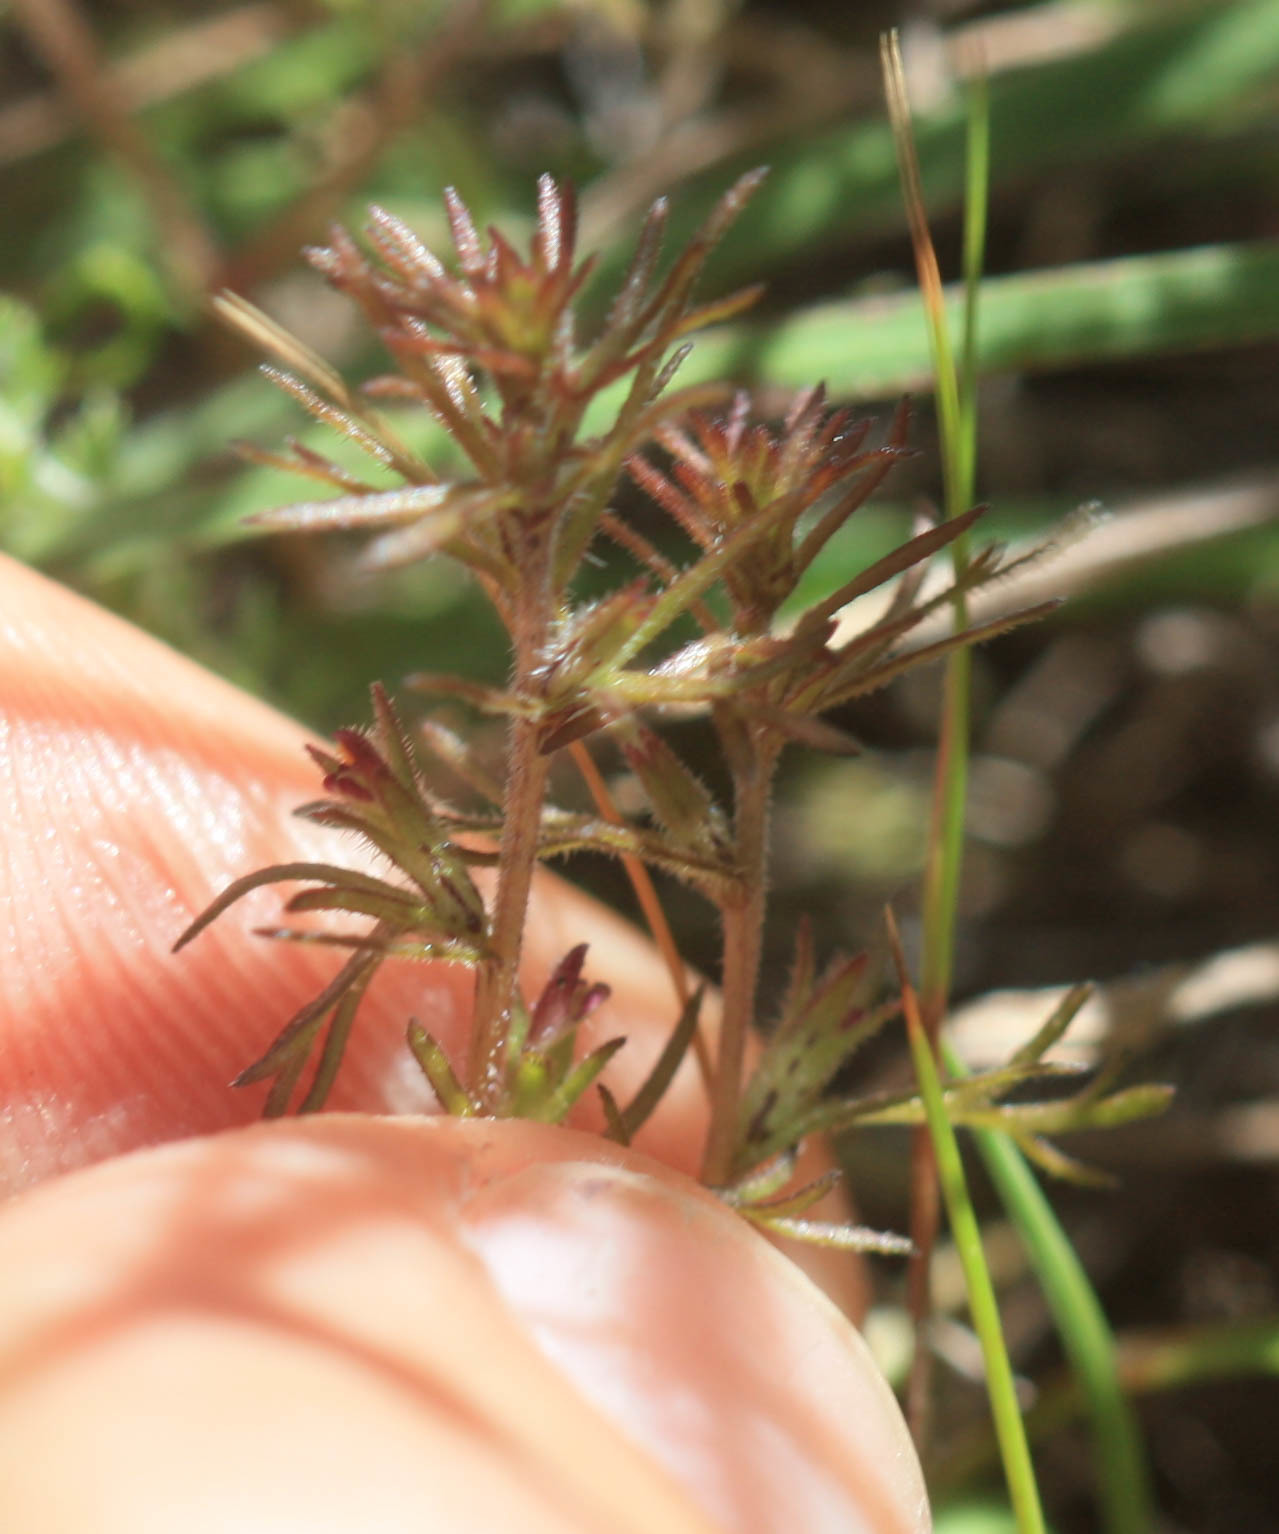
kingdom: Plantae
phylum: Tracheophyta
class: Magnoliopsida
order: Lamiales
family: Orobanchaceae
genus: Triphysaria
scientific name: Triphysaria pusilla
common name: Dwarf false owl-clover
